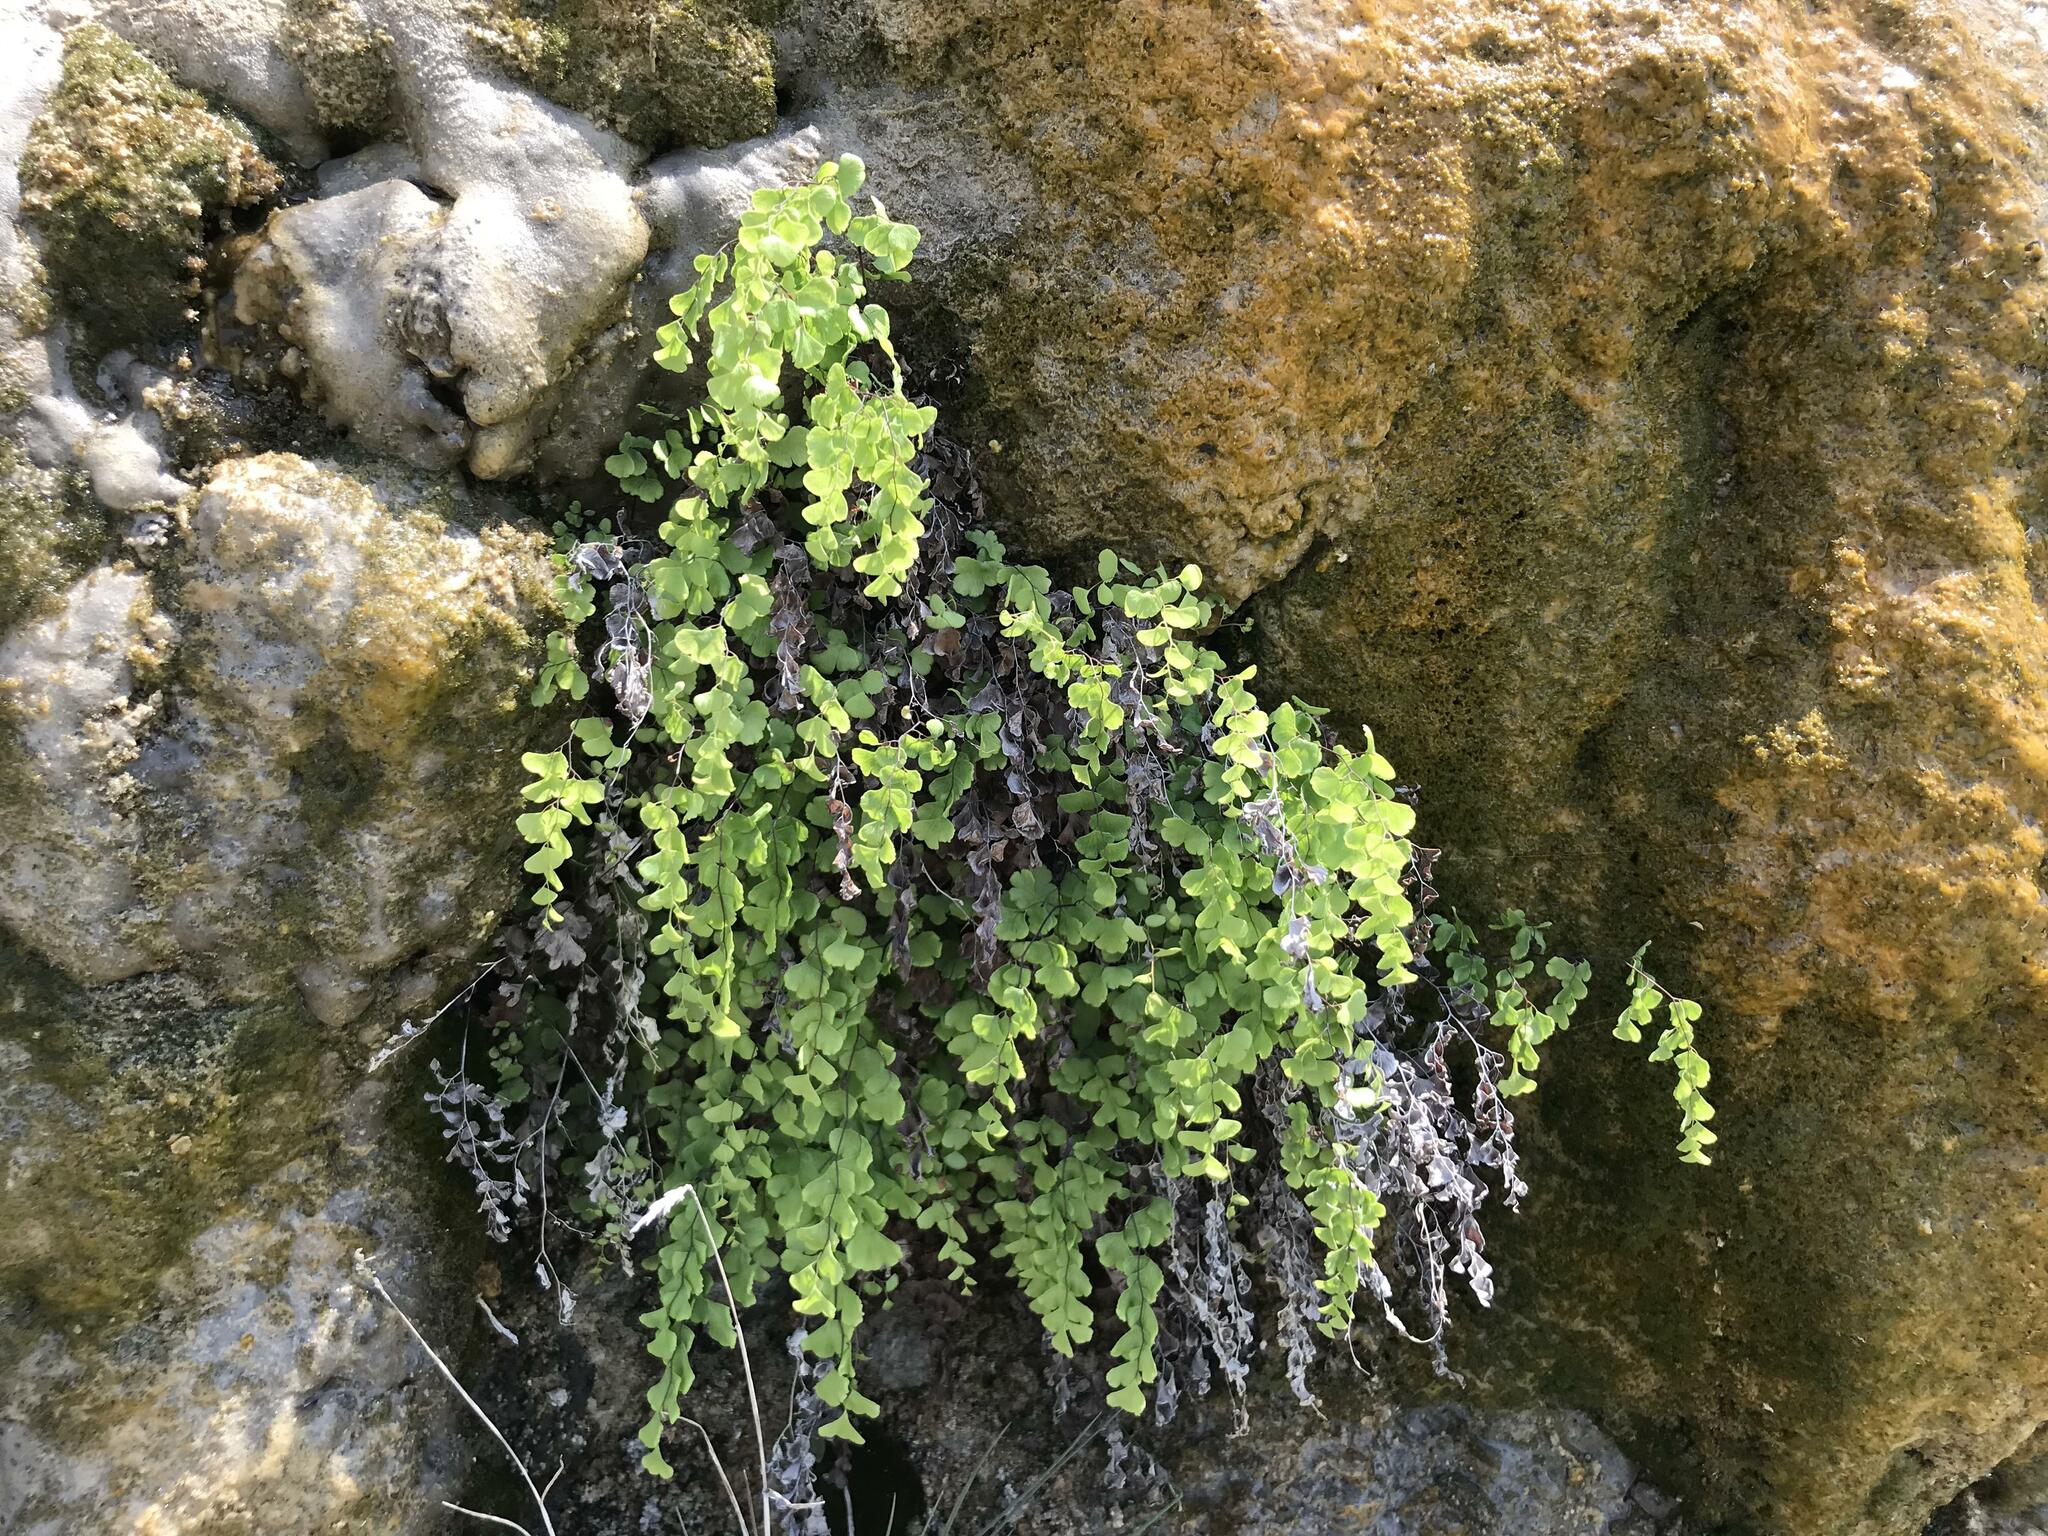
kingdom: Plantae
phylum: Tracheophyta
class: Polypodiopsida
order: Polypodiales
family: Pteridaceae
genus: Adiantum
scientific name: Adiantum capillus-veneris
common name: Maidenhair fern
